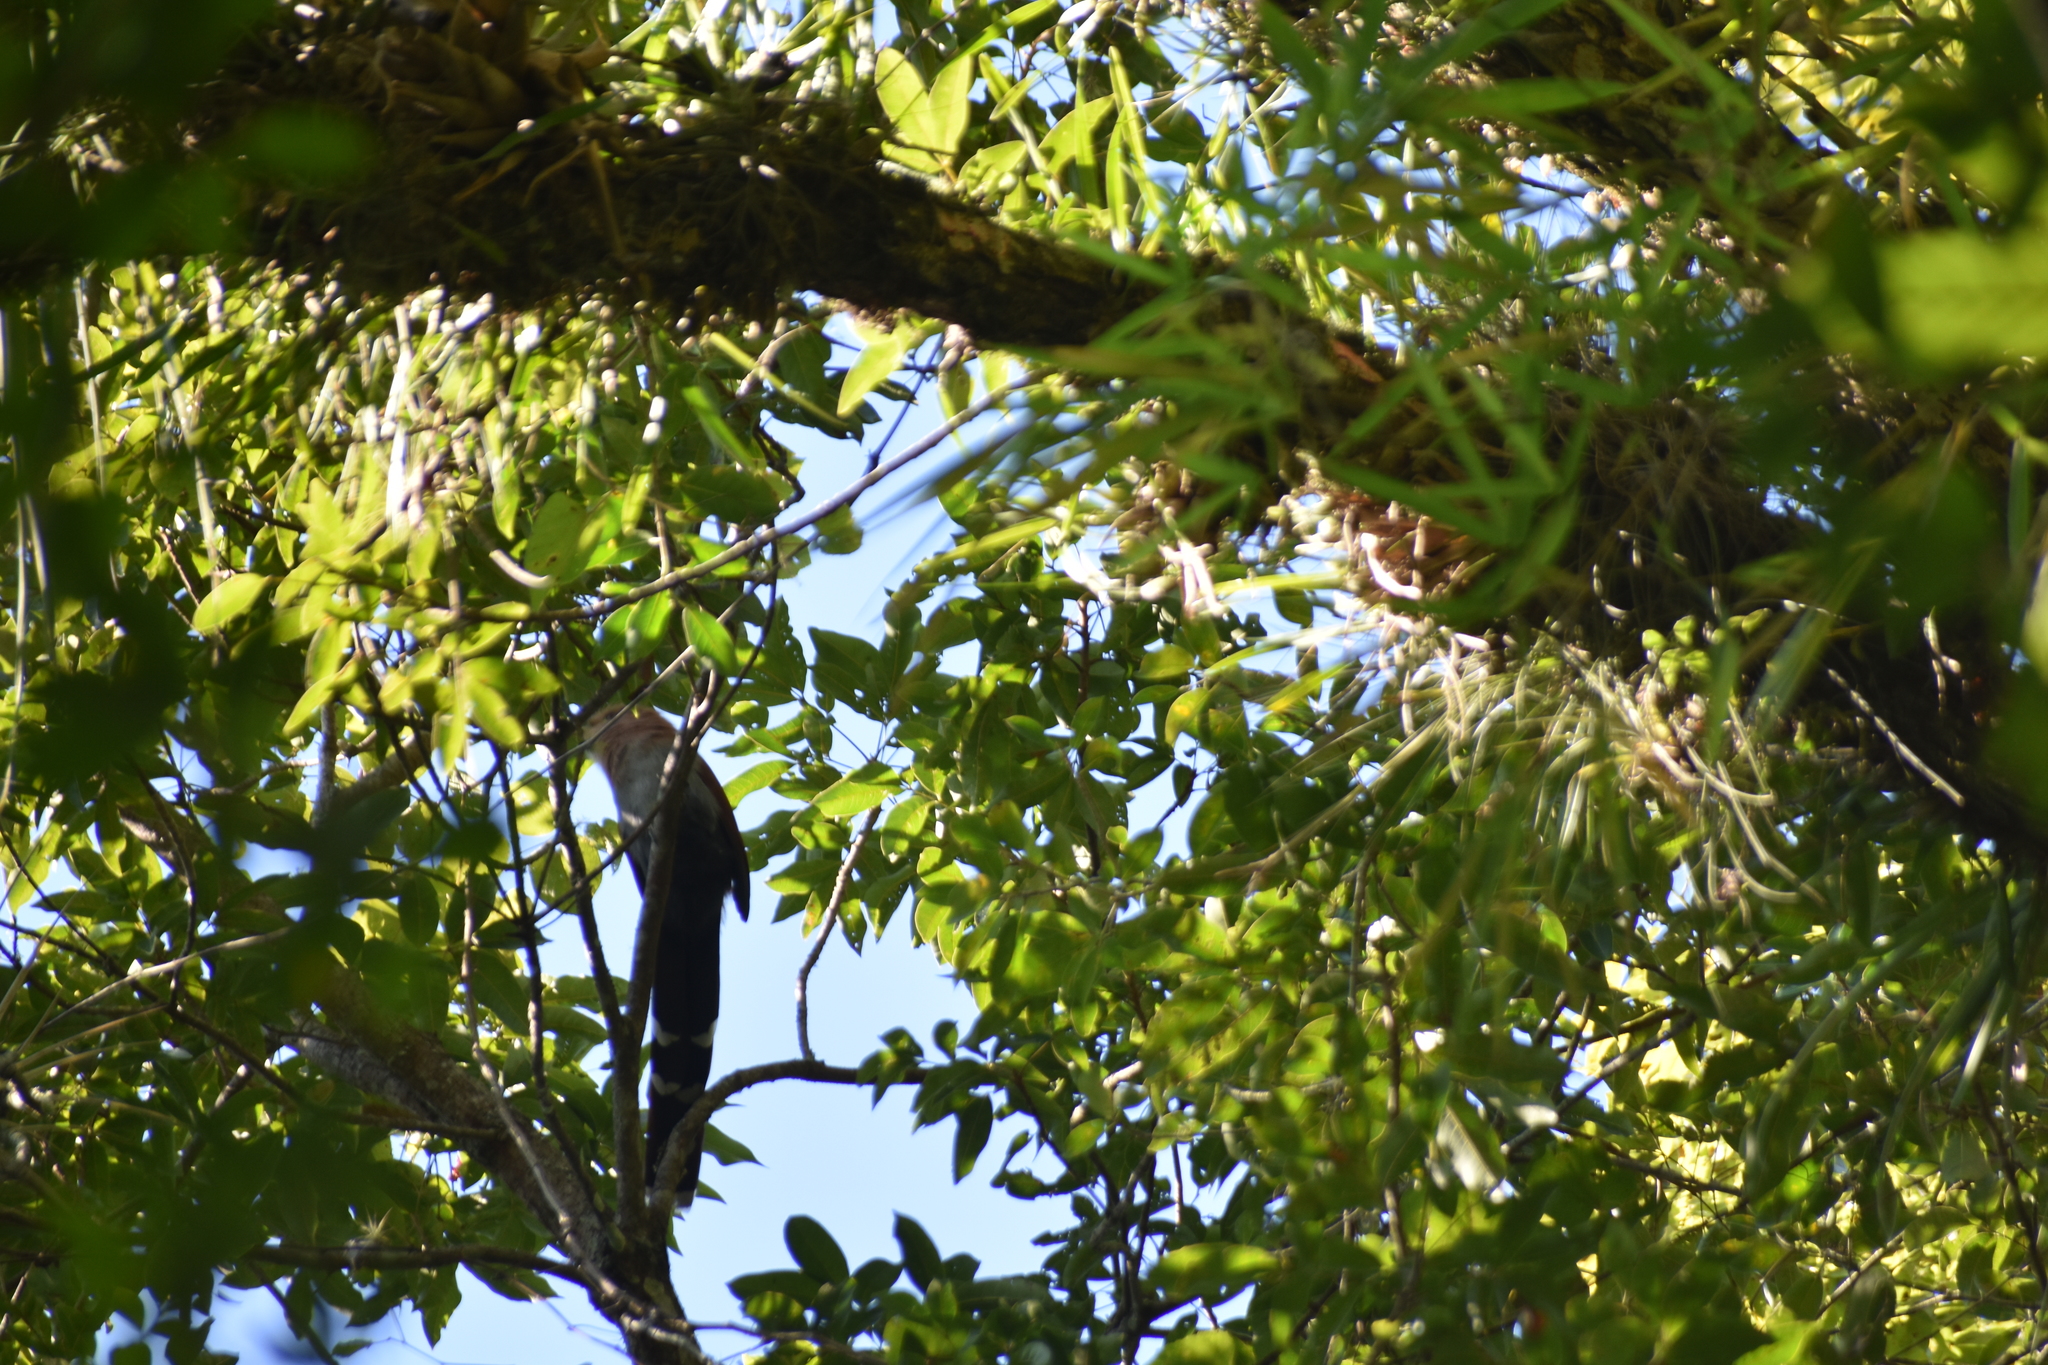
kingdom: Animalia
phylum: Chordata
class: Aves
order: Cuculiformes
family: Cuculidae
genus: Piaya
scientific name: Piaya cayana
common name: Squirrel cuckoo
